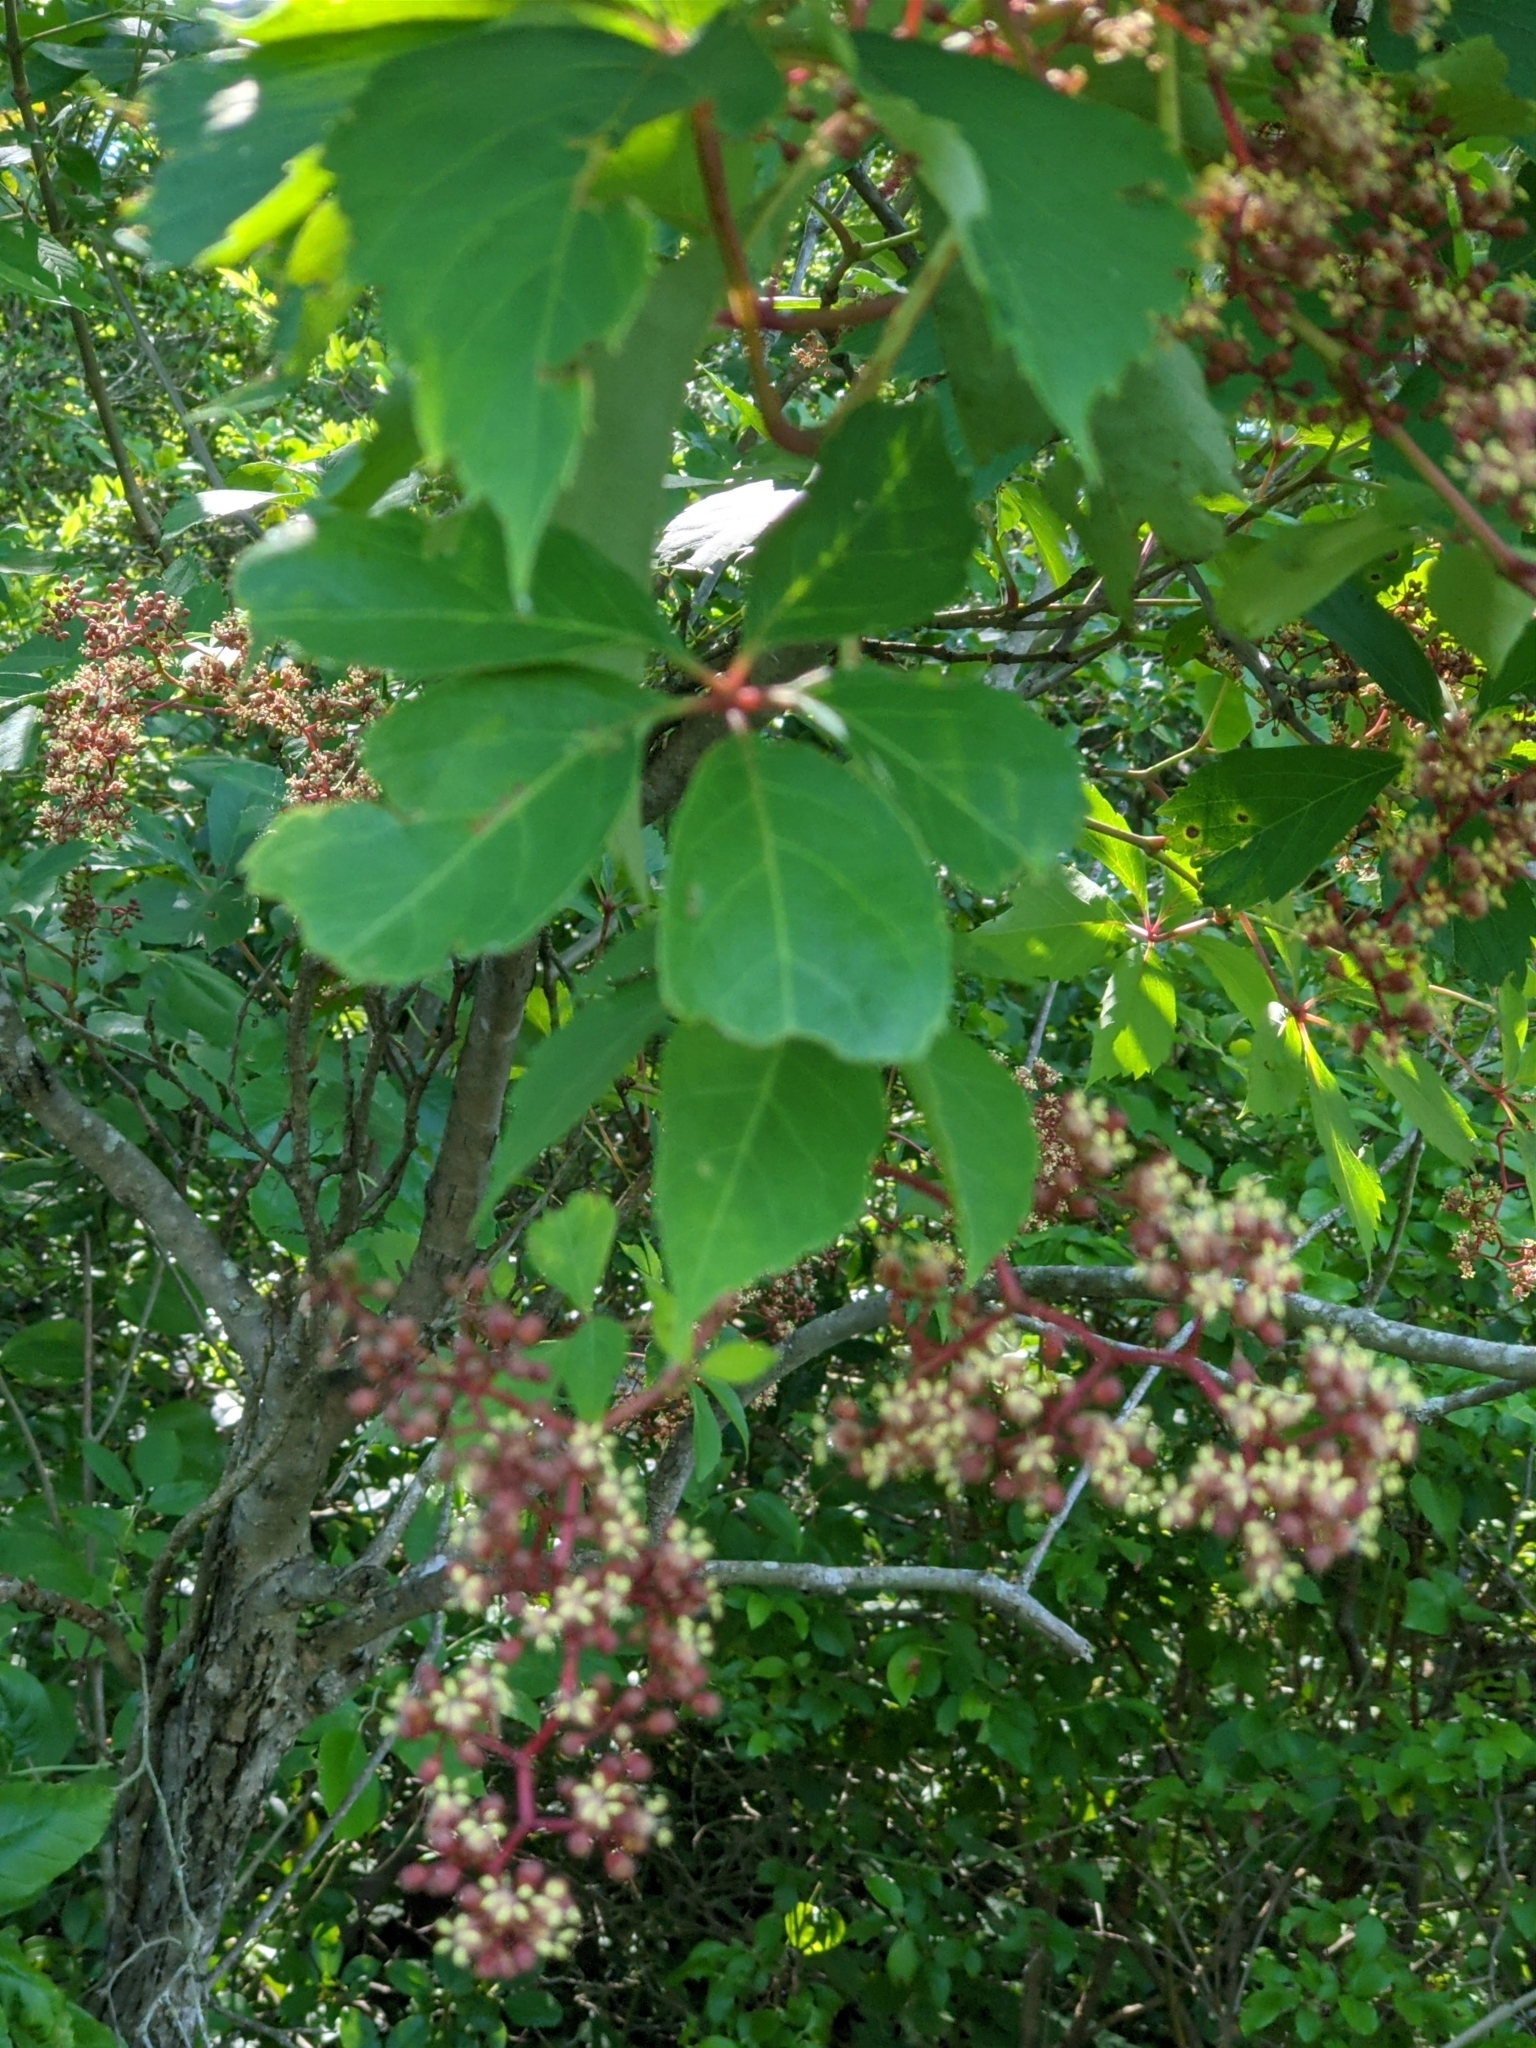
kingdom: Plantae
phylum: Tracheophyta
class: Magnoliopsida
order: Vitales
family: Vitaceae
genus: Parthenocissus
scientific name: Parthenocissus quinquefolia
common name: Virginia-creeper
